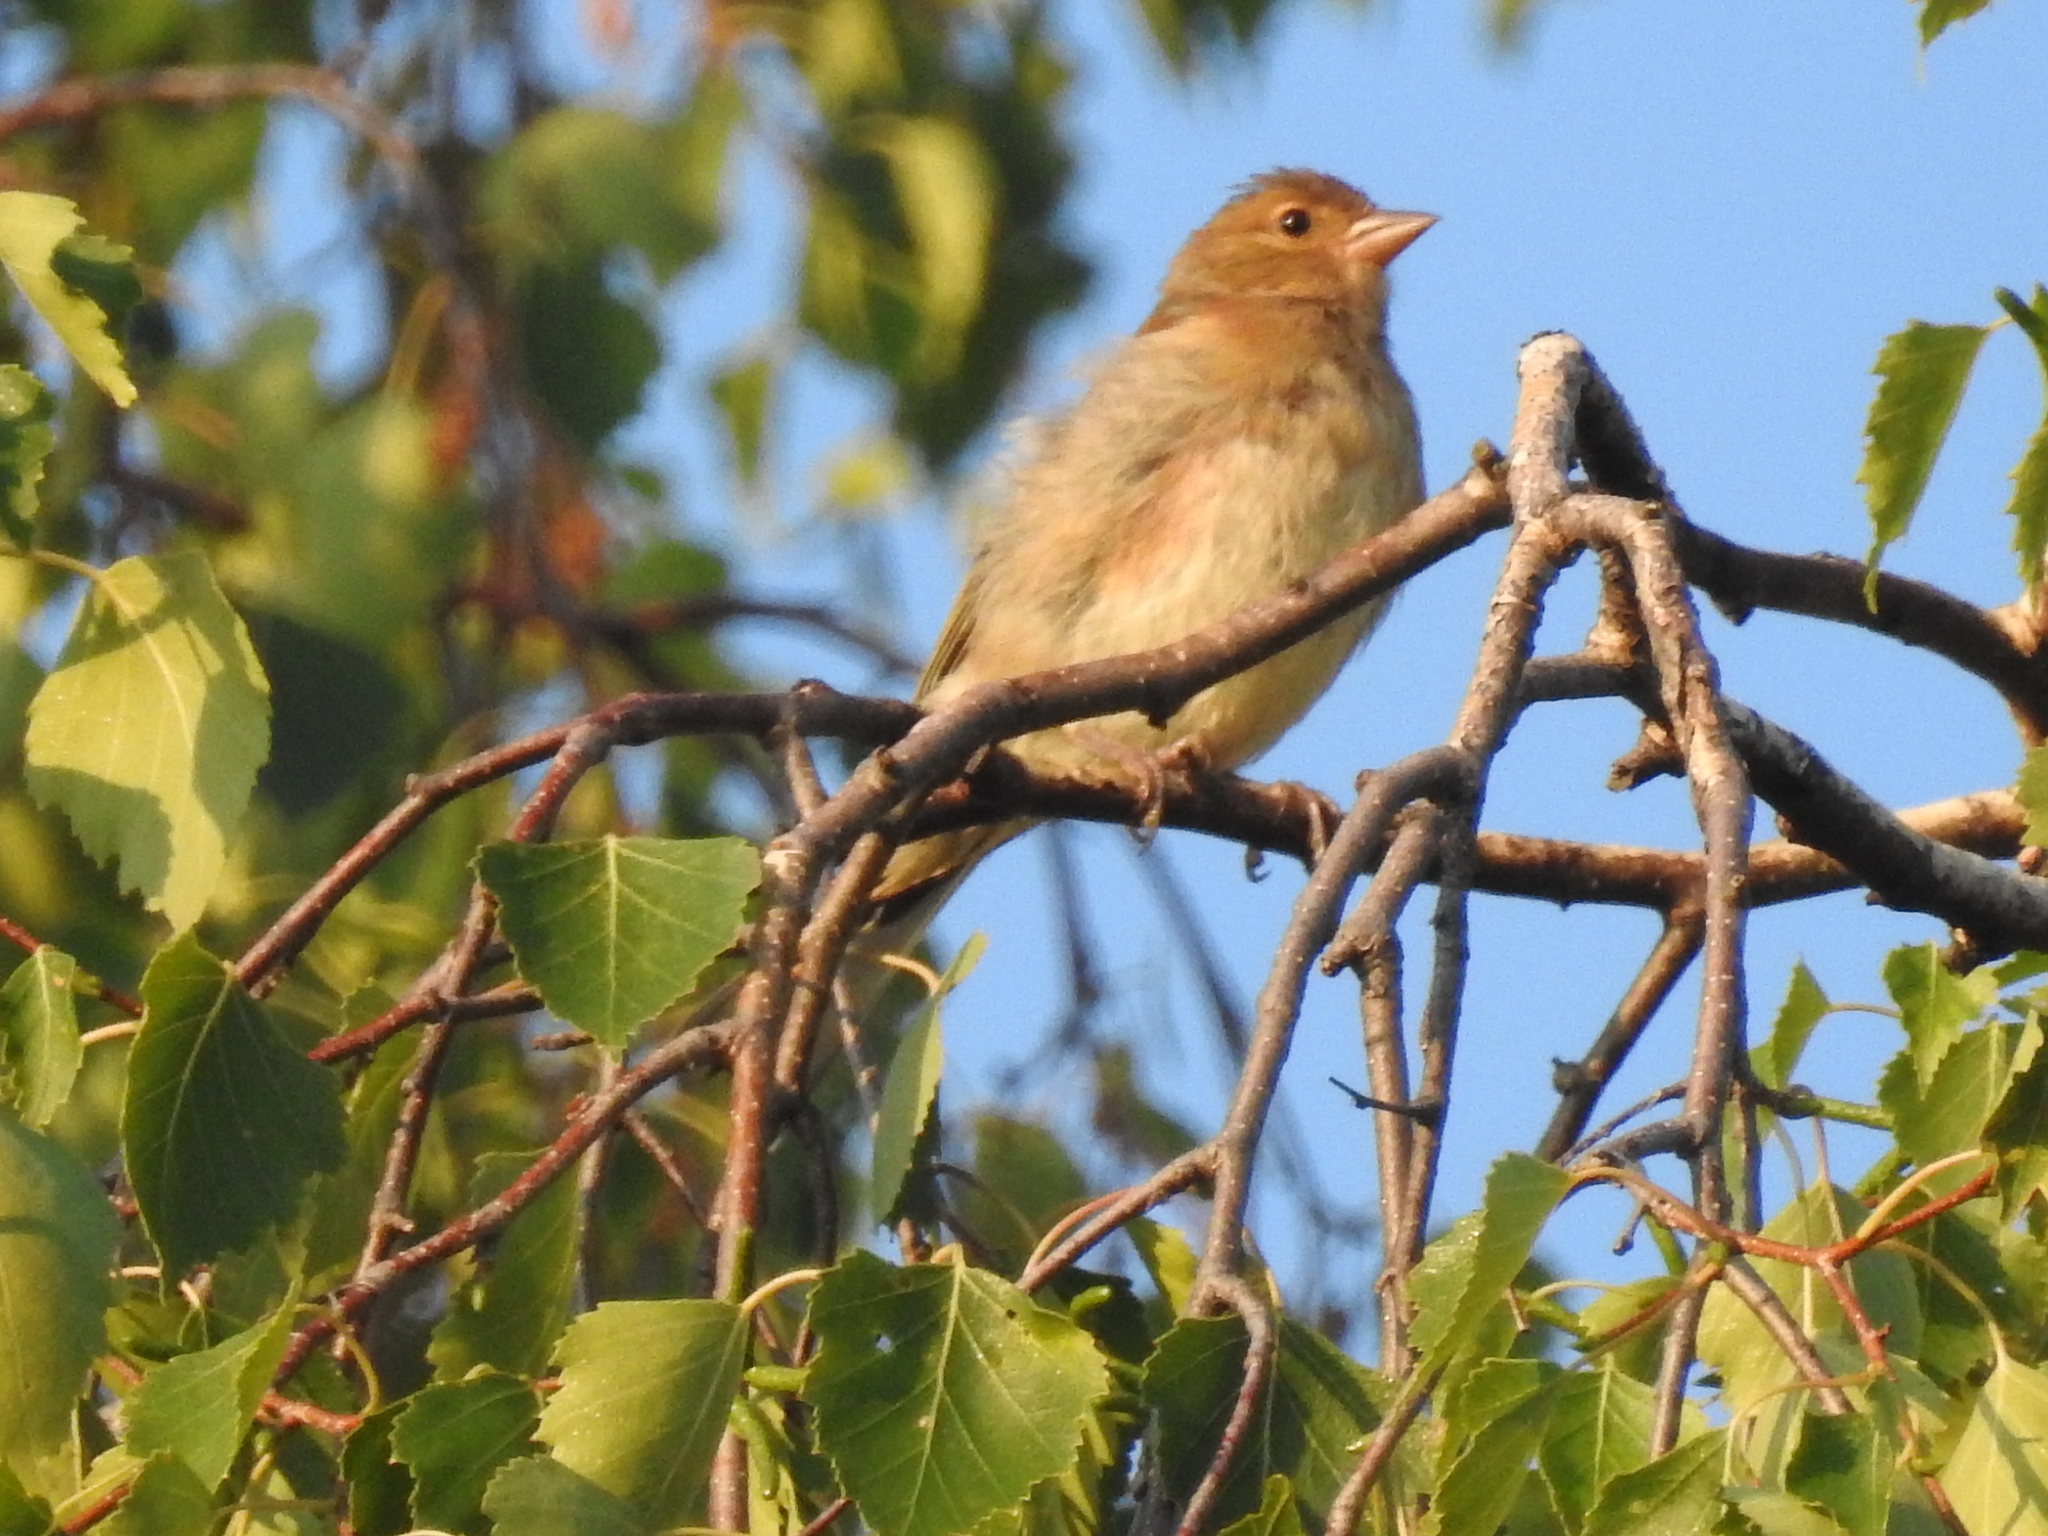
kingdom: Animalia
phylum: Chordata
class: Aves
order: Passeriformes
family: Fringillidae
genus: Fringilla
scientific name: Fringilla coelebs
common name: Common chaffinch
